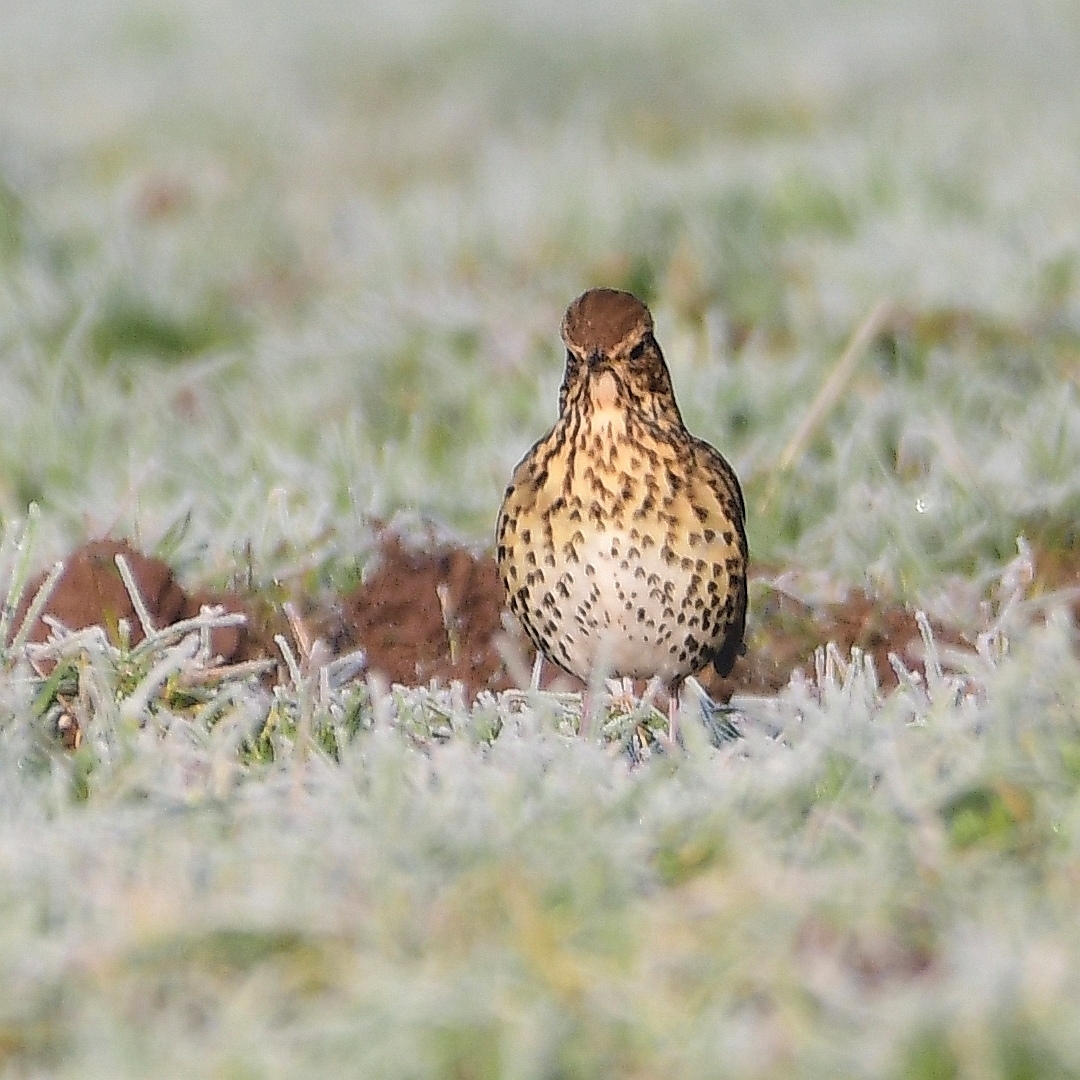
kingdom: Animalia
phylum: Chordata
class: Aves
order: Passeriformes
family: Turdidae
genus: Turdus
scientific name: Turdus philomelos
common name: Song thrush
